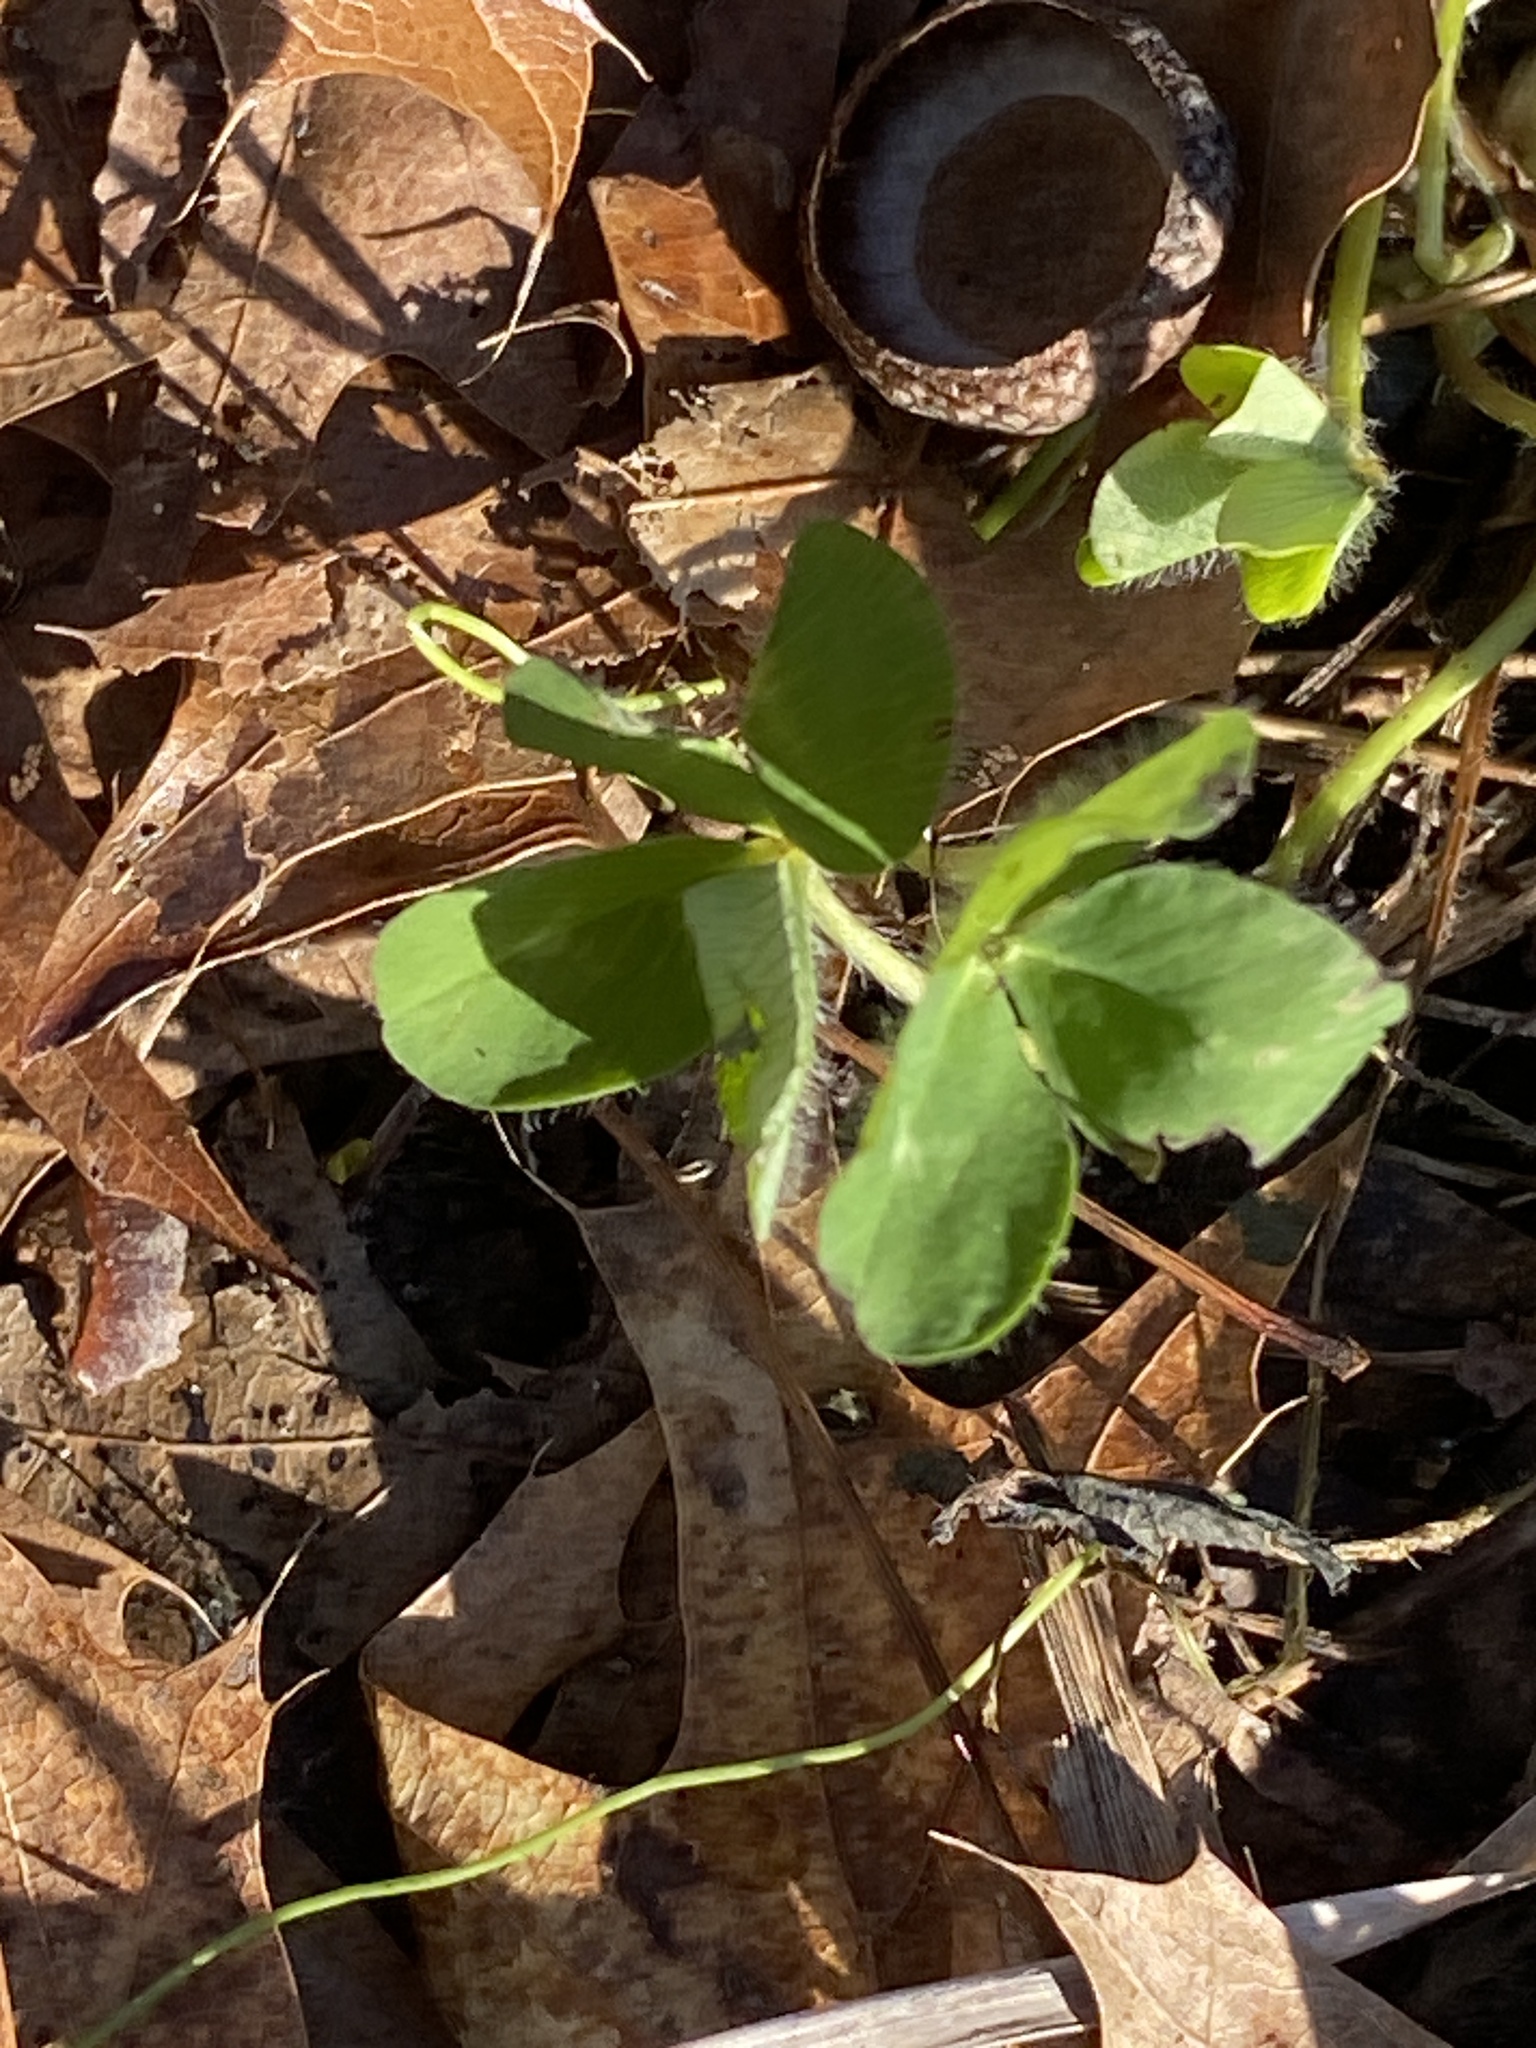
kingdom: Plantae
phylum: Tracheophyta
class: Magnoliopsida
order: Fabales
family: Fabaceae
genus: Trifolium
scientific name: Trifolium pratense
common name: Red clover
